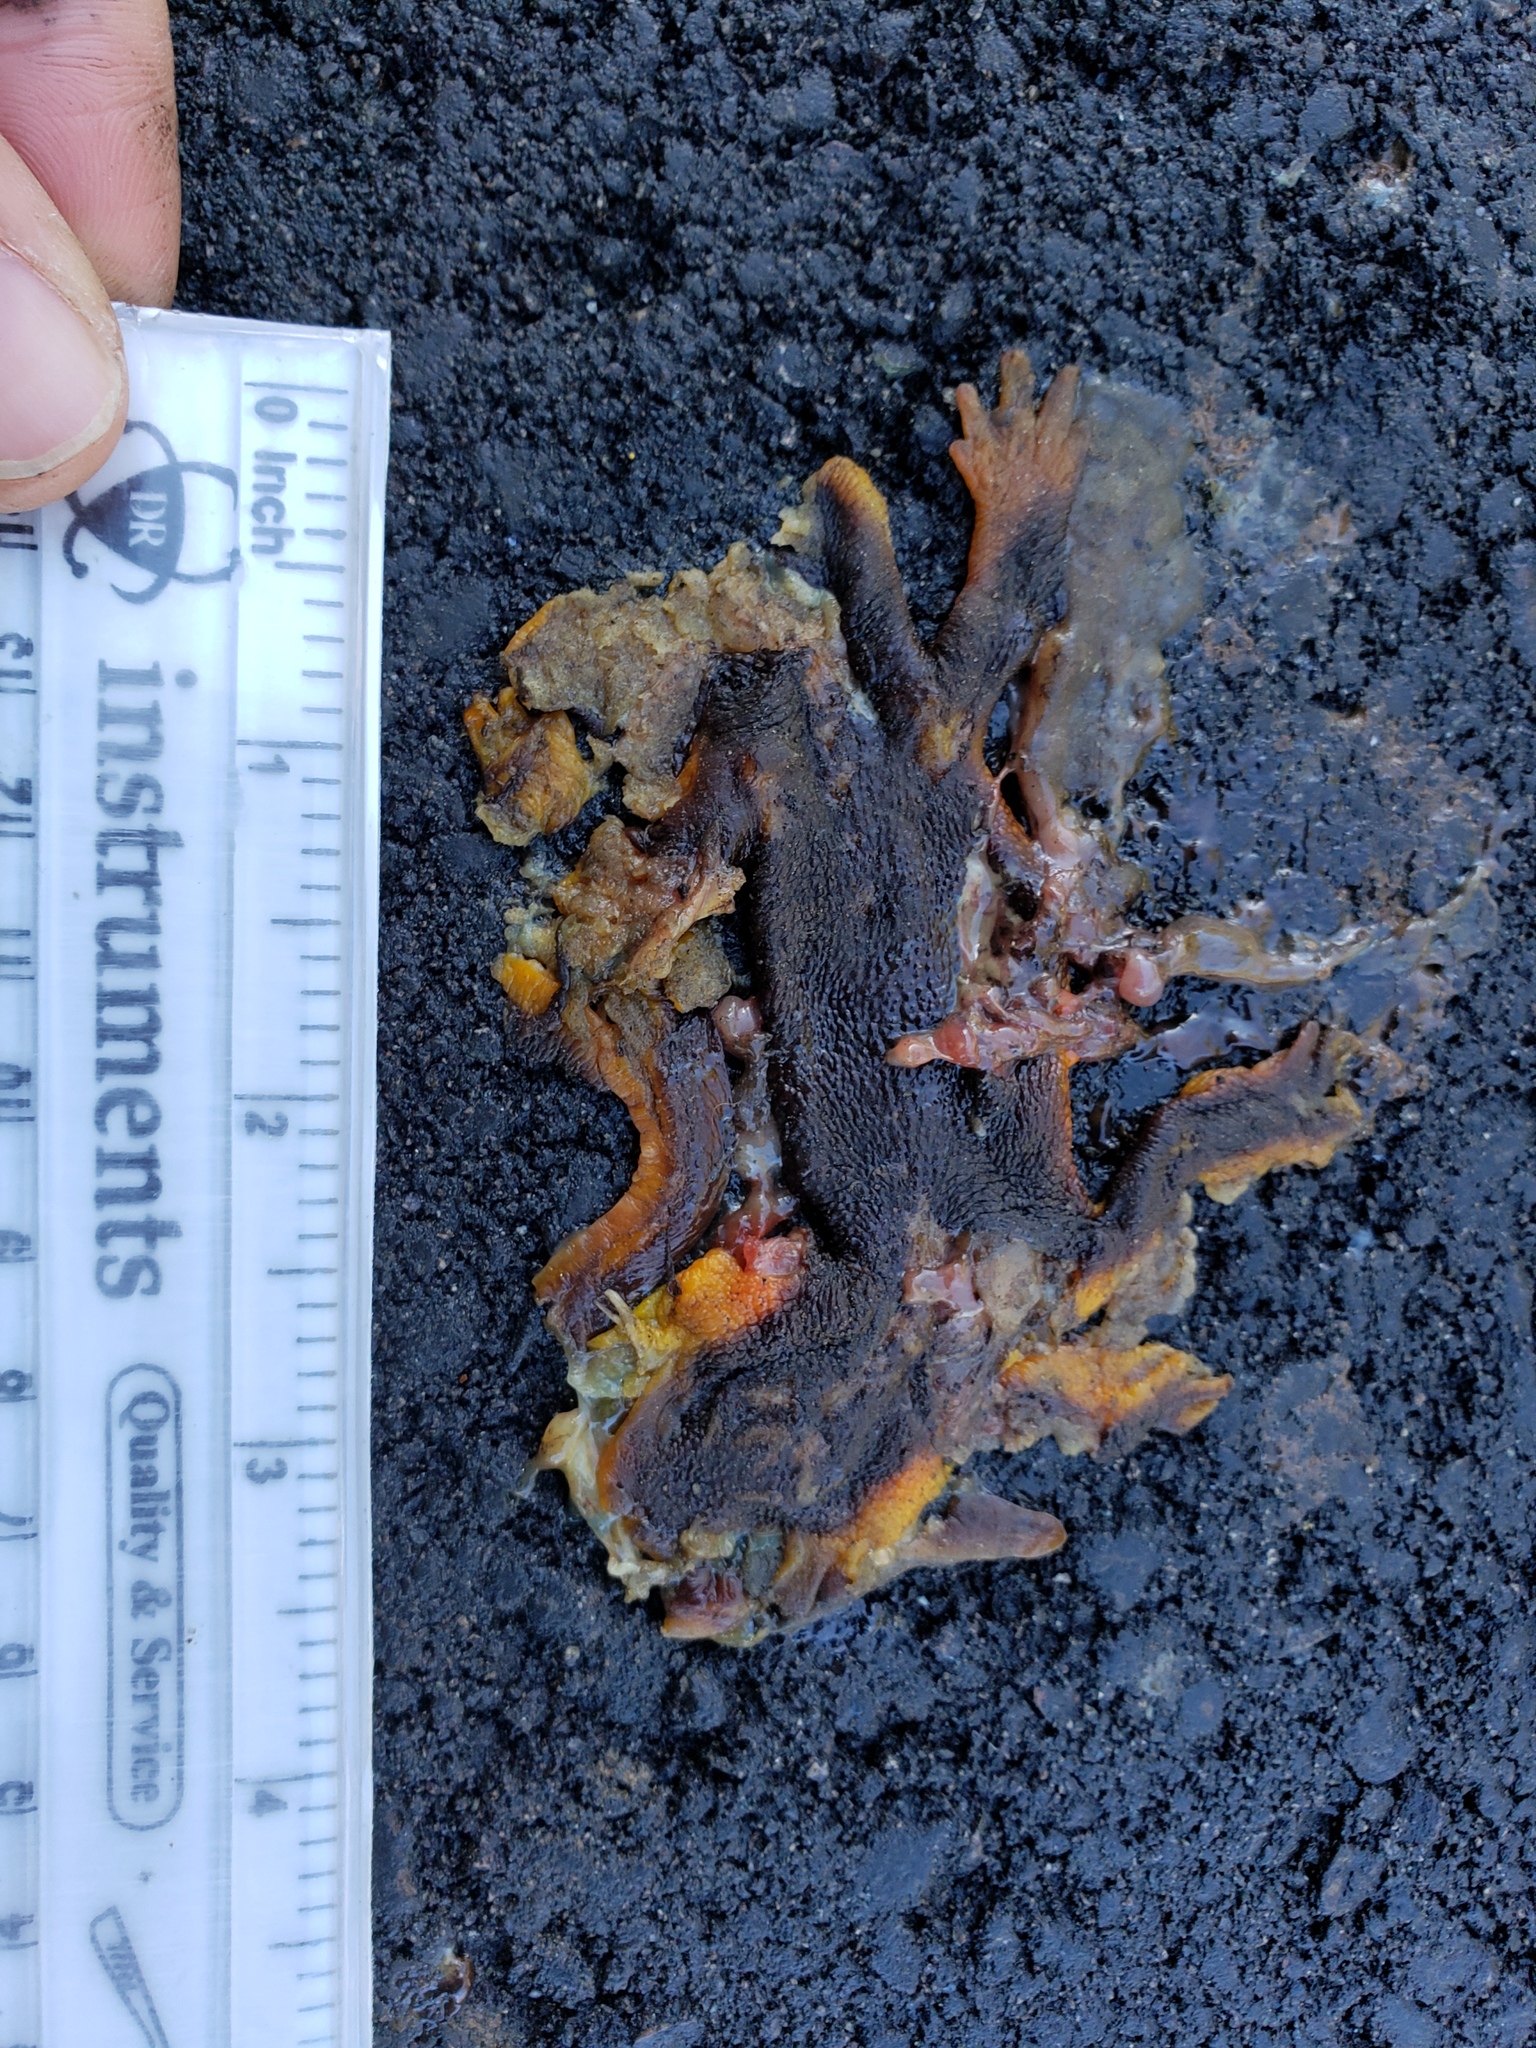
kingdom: Animalia
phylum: Chordata
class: Amphibia
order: Caudata
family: Salamandridae
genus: Taricha
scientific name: Taricha
